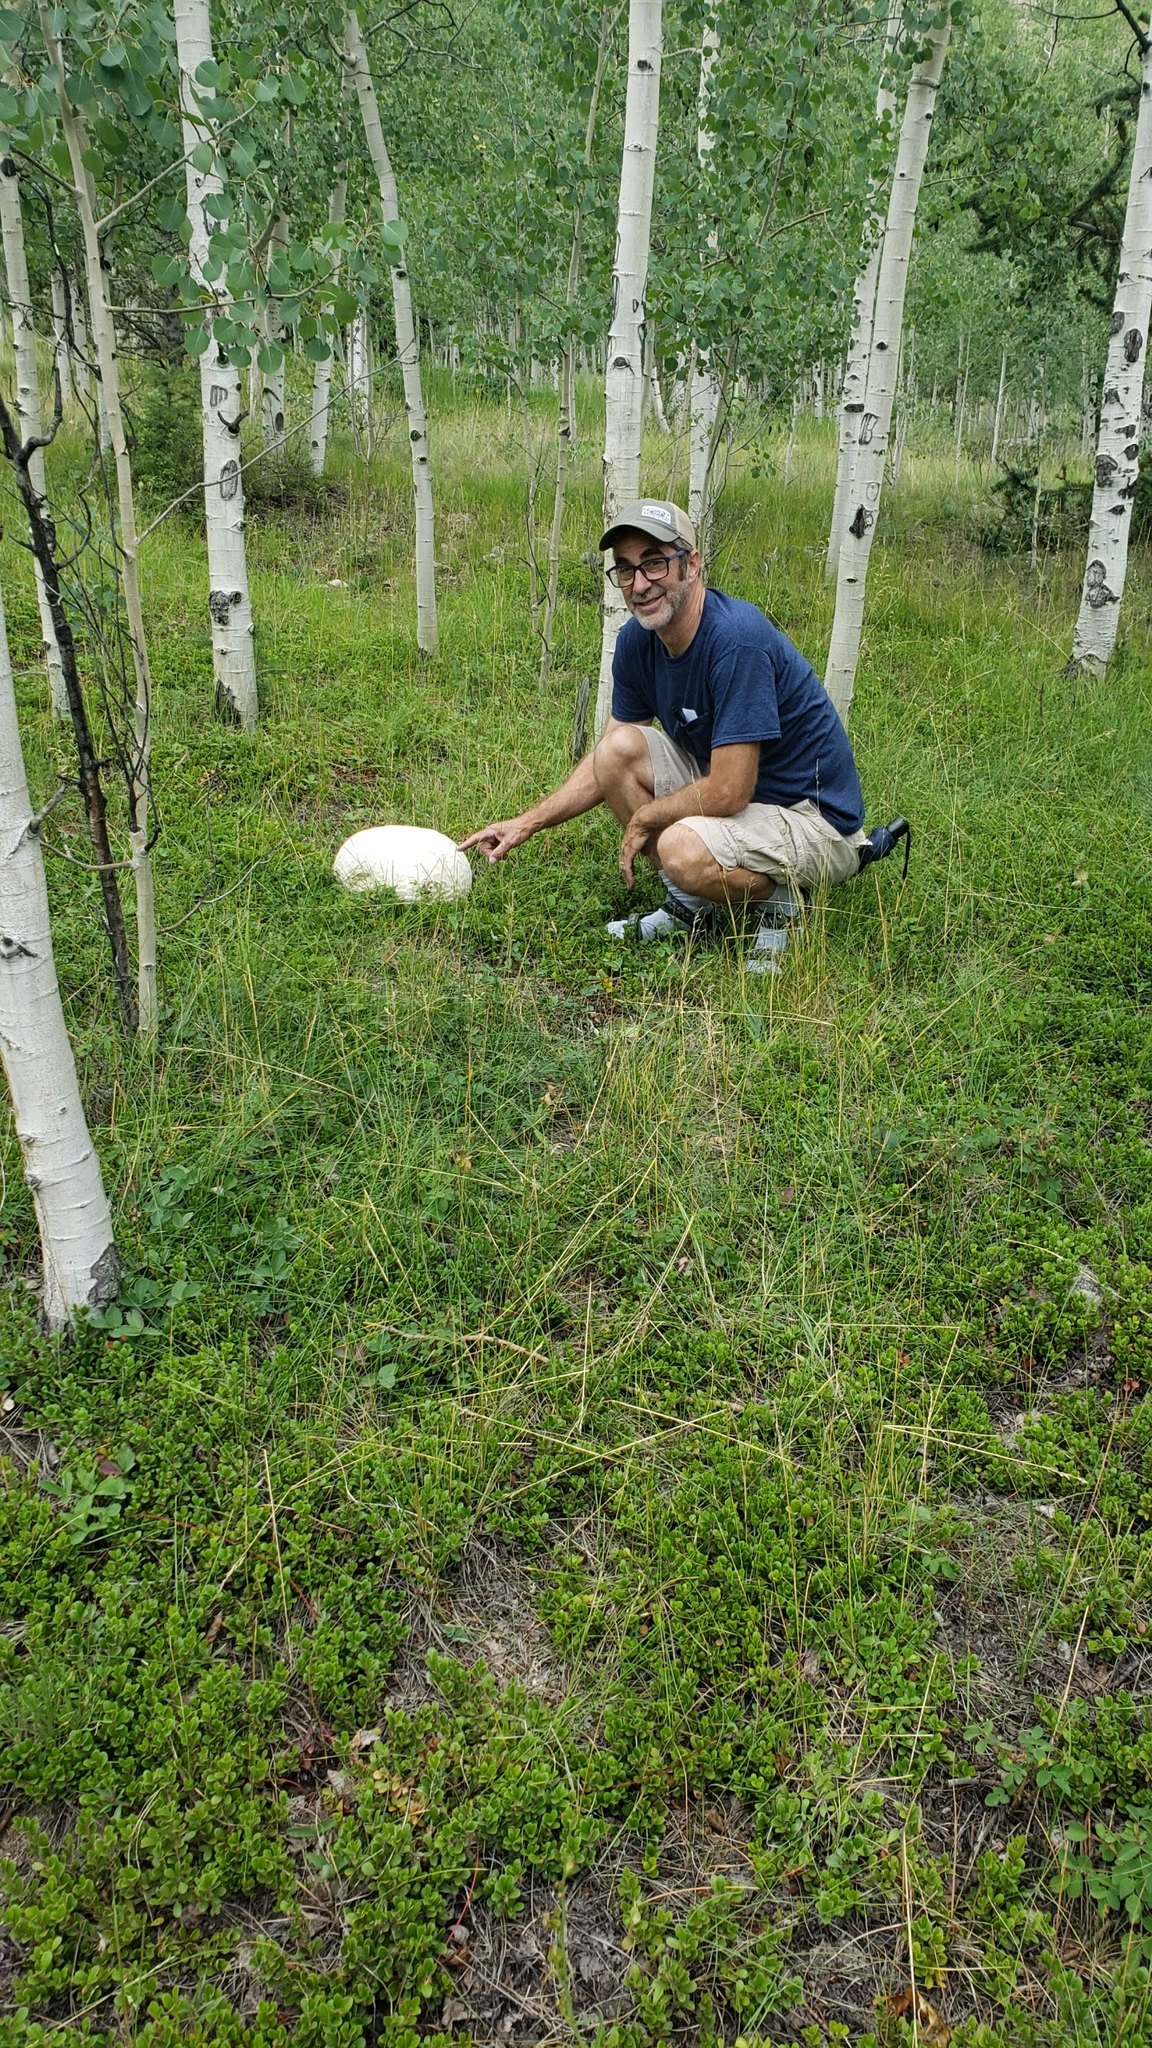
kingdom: Fungi
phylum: Basidiomycota
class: Agaricomycetes
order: Agaricales
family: Lycoperdaceae
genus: Calvatia
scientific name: Calvatia booniana
